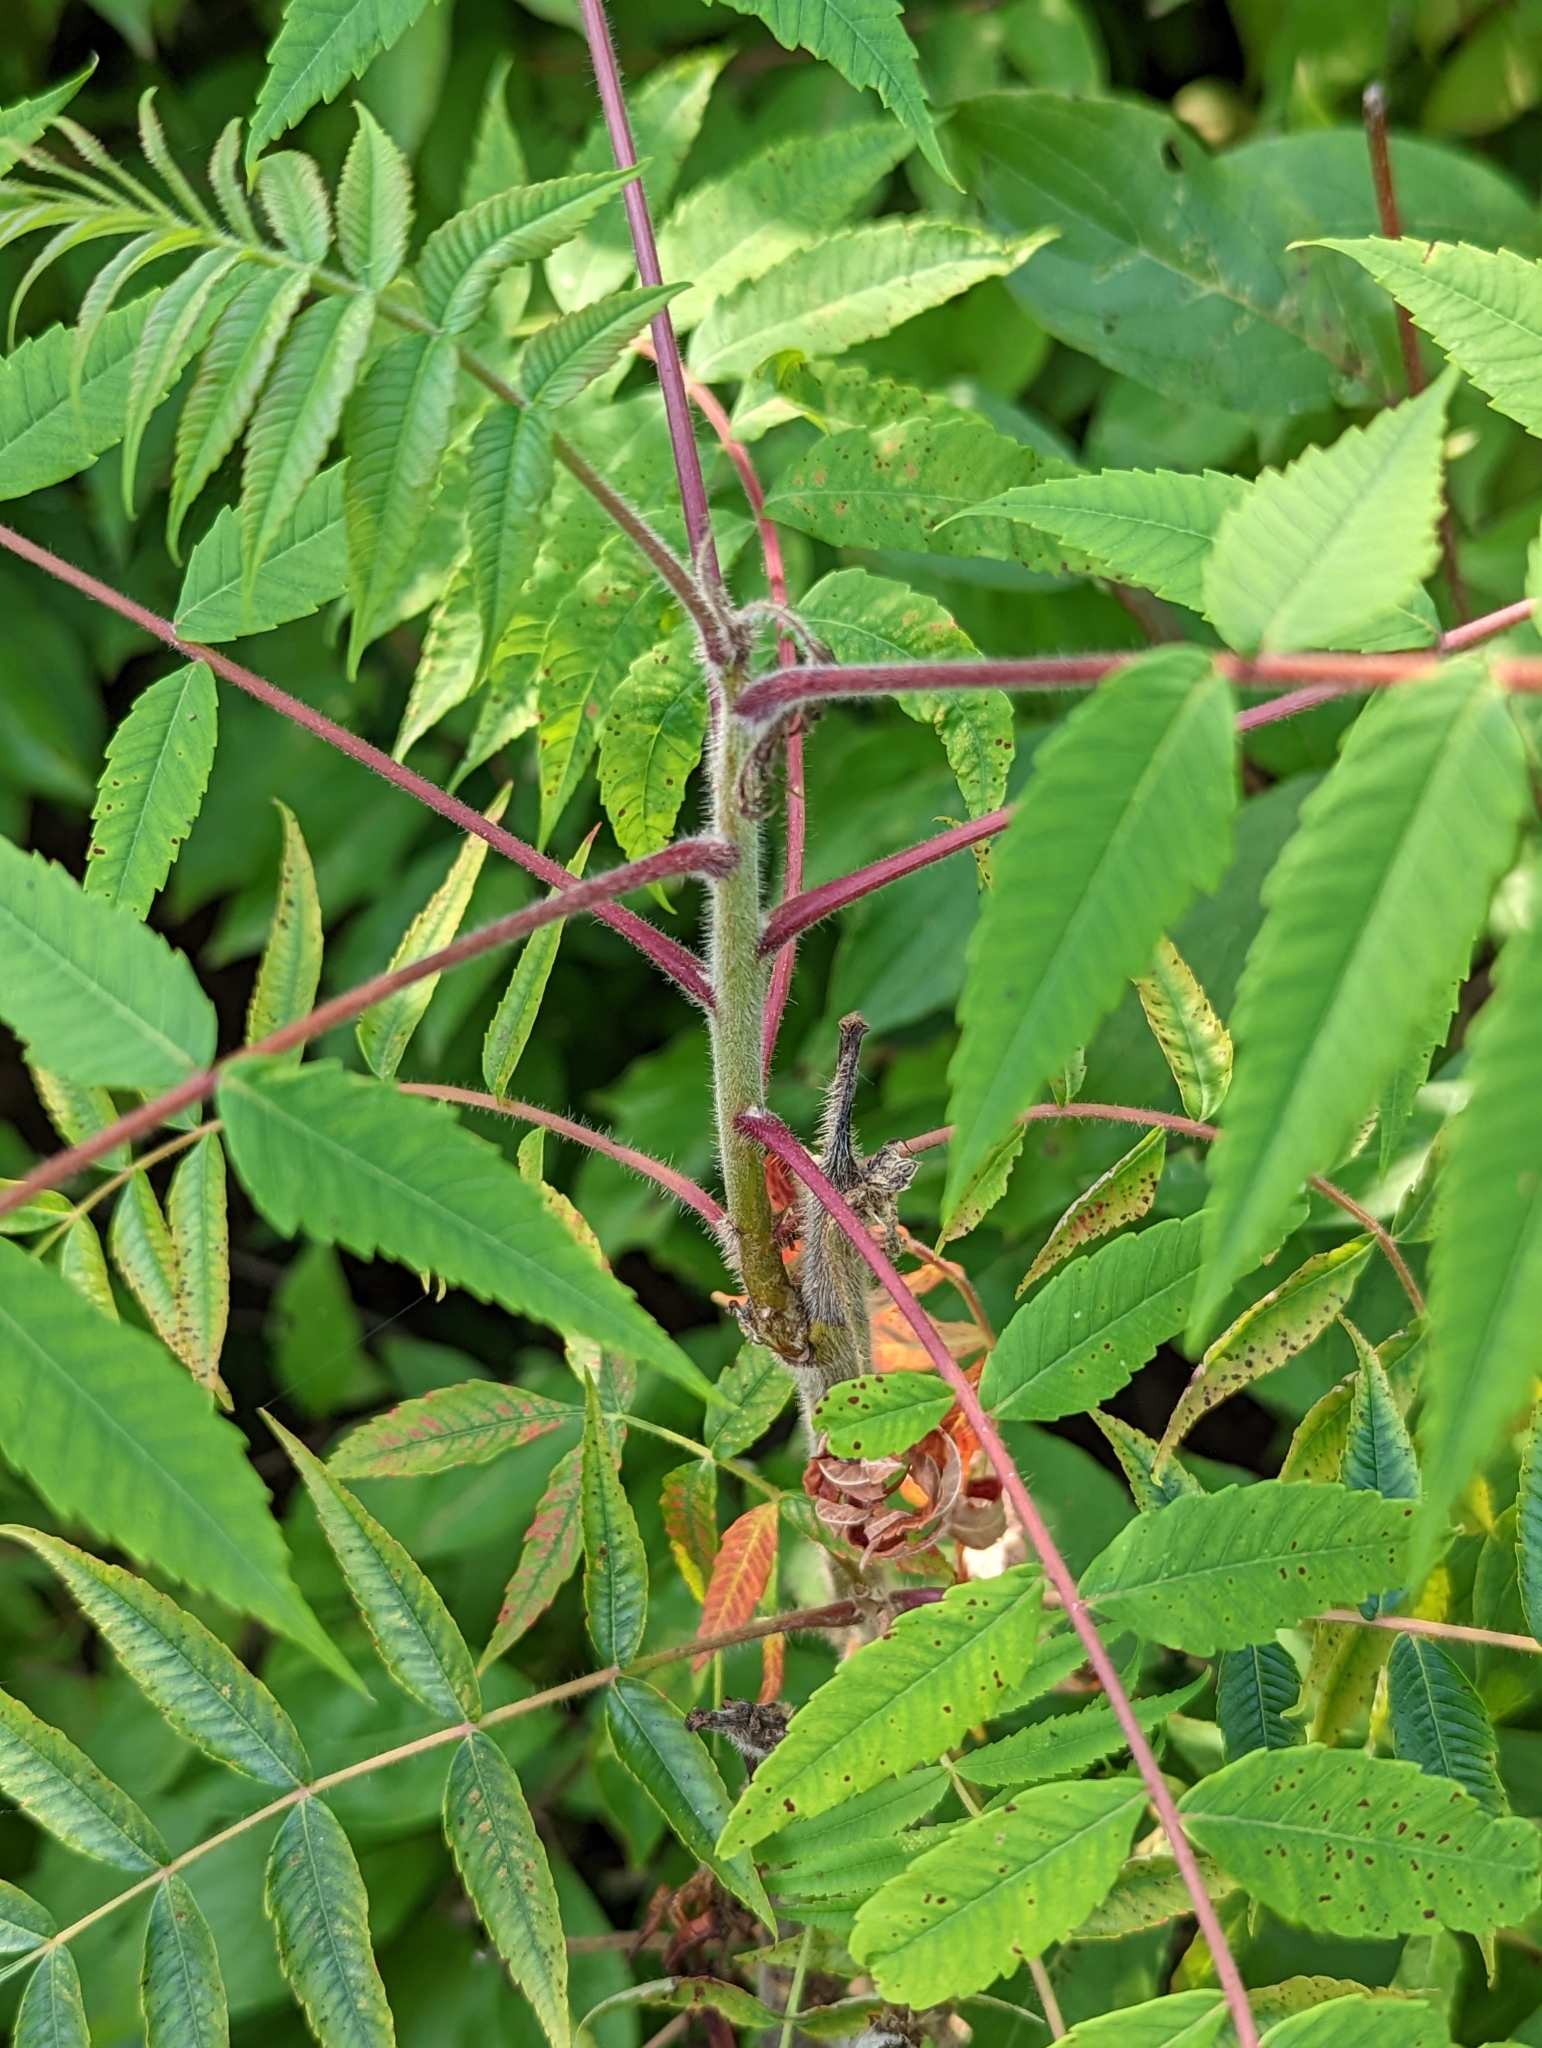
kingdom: Plantae
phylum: Tracheophyta
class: Magnoliopsida
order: Sapindales
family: Anacardiaceae
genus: Rhus
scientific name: Rhus typhina
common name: Staghorn sumac
